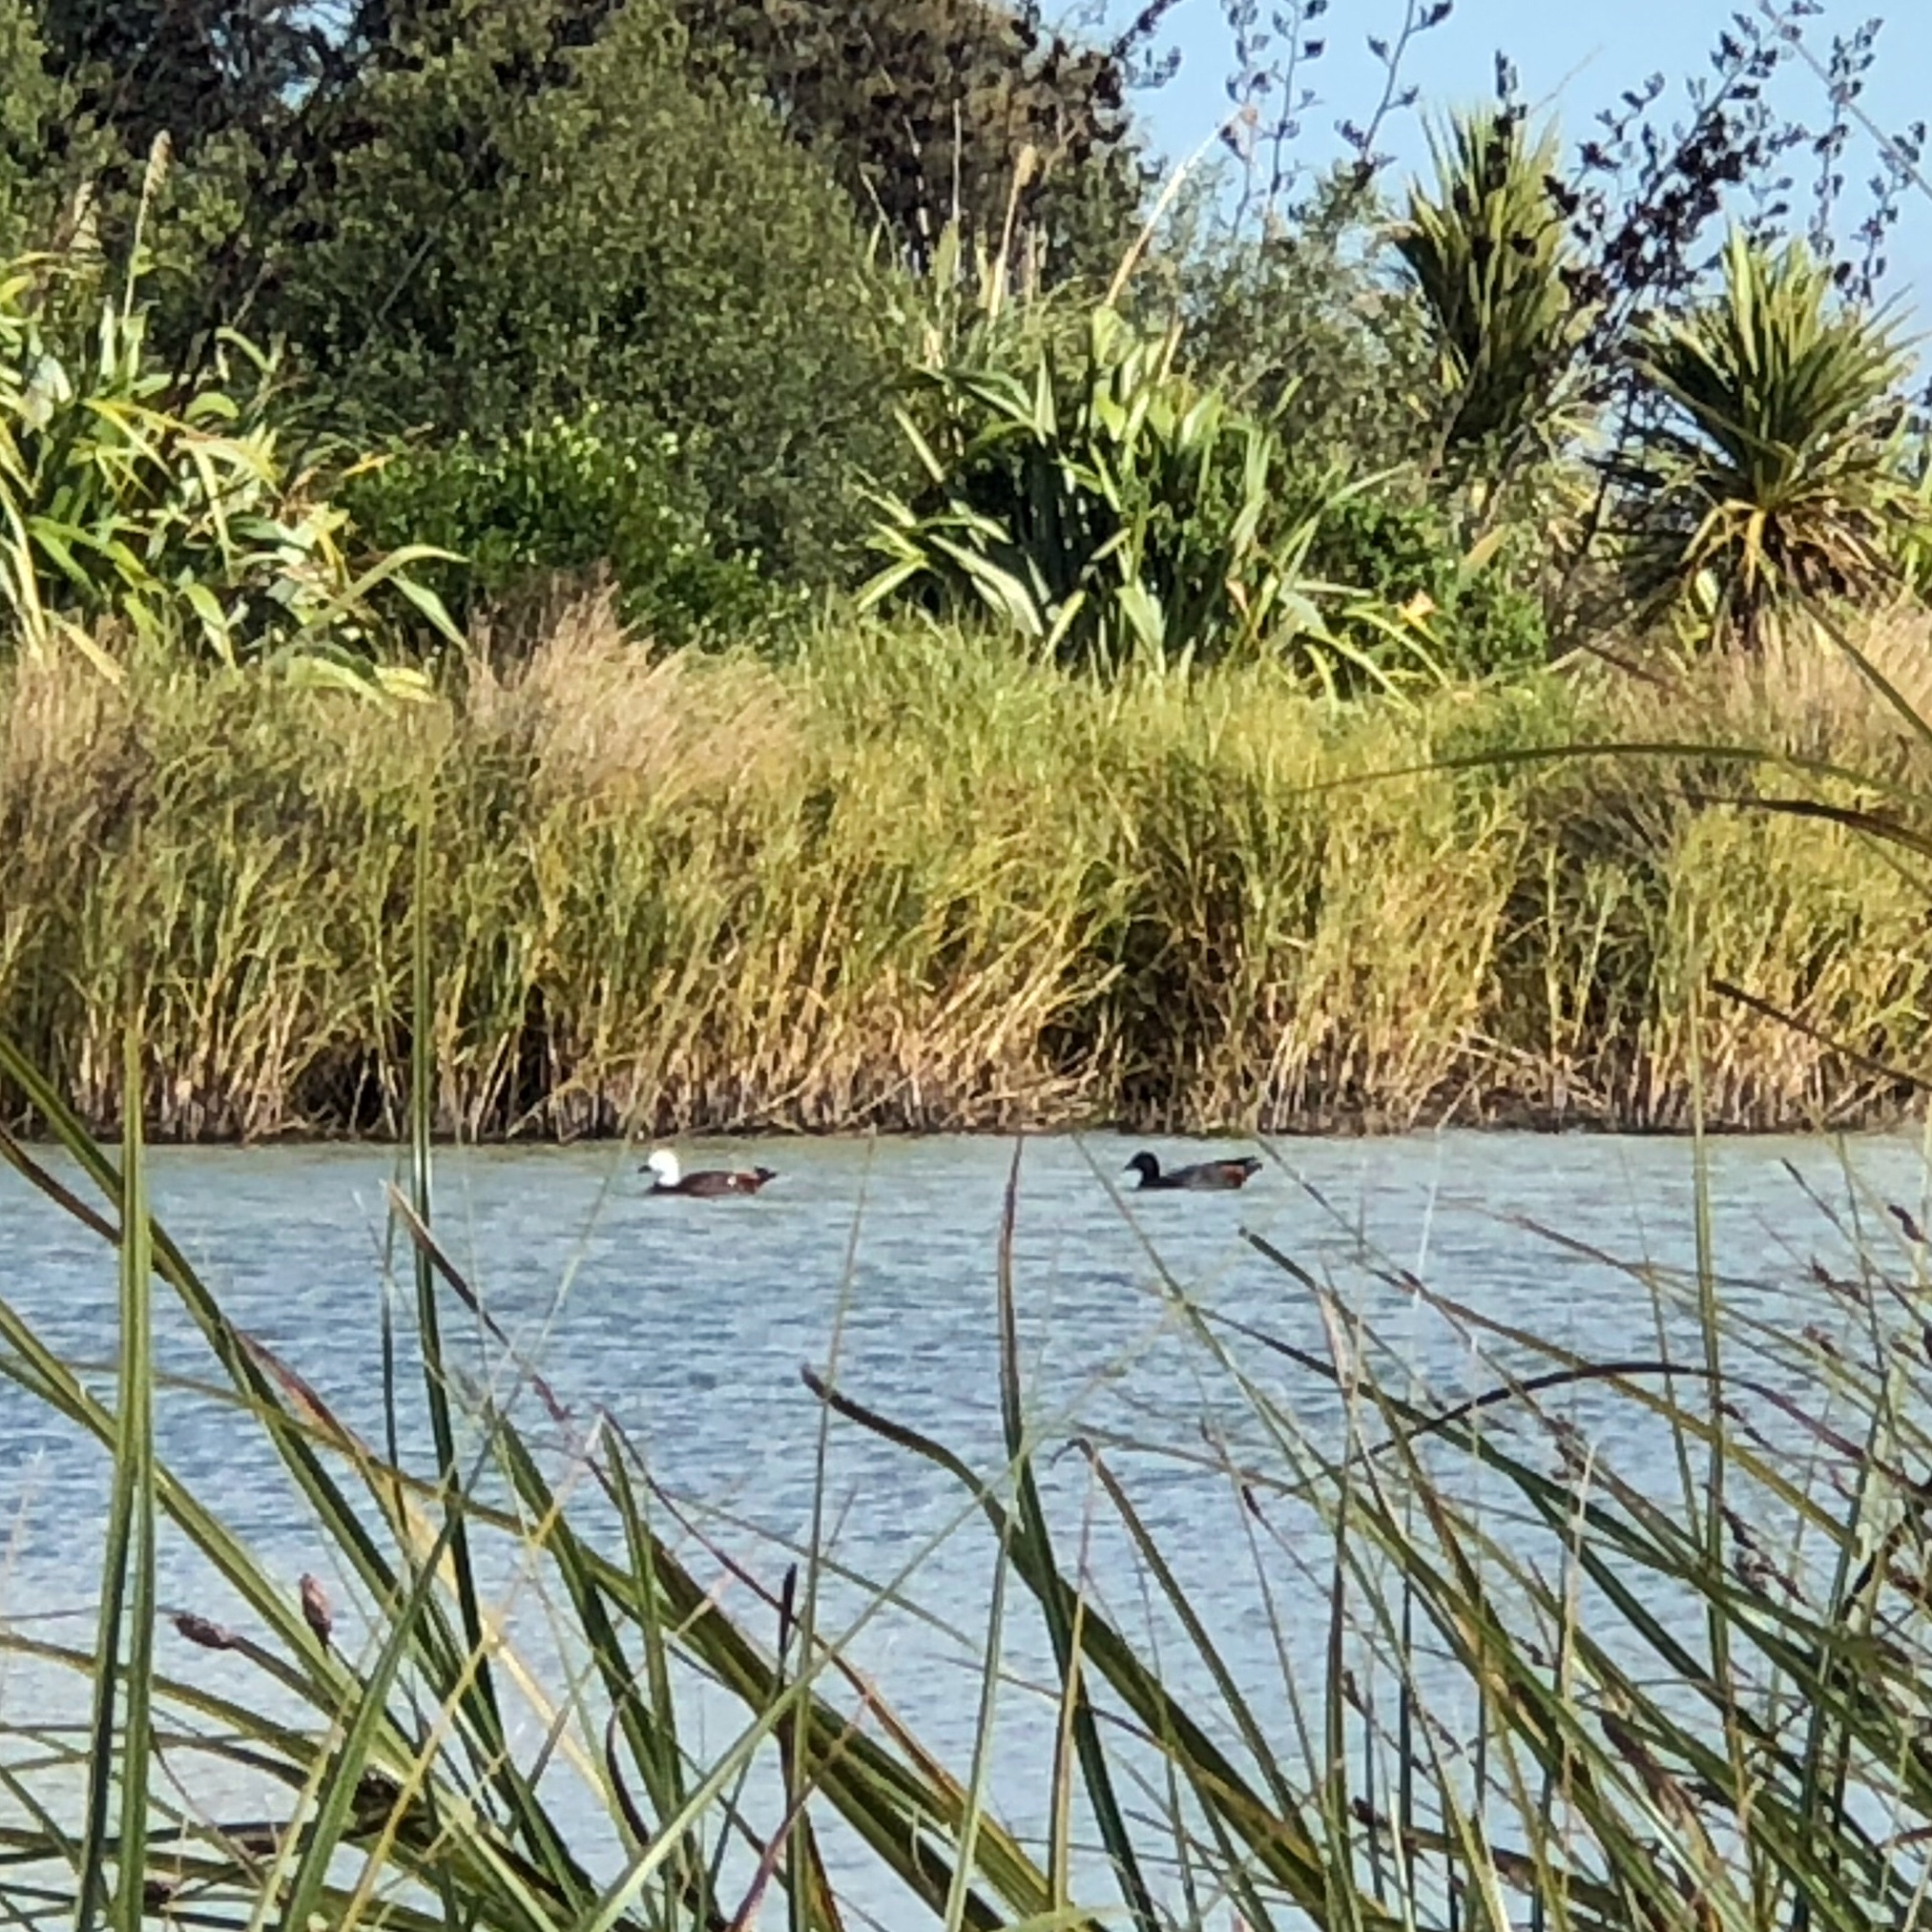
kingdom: Animalia
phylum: Chordata
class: Aves
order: Anseriformes
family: Anatidae
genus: Tadorna
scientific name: Tadorna variegata
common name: Paradise shelduck
